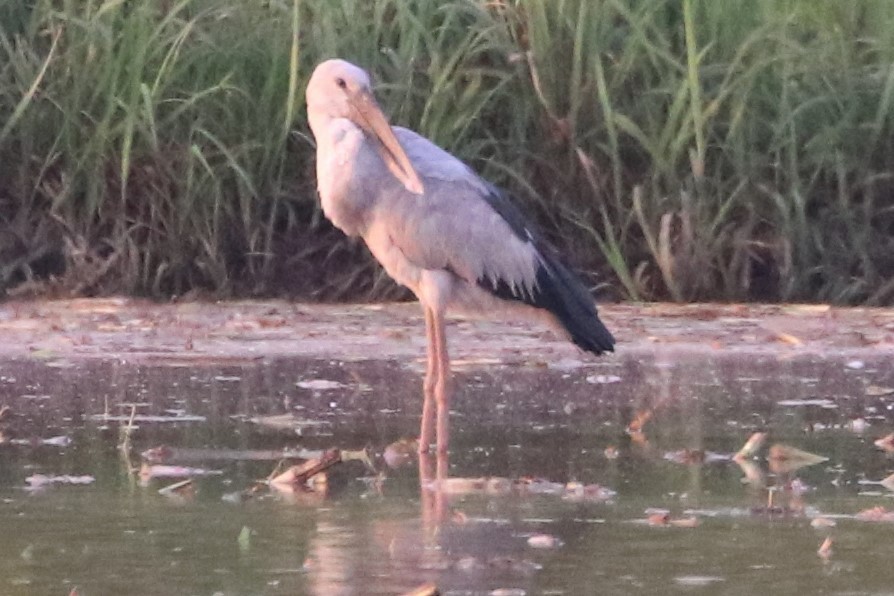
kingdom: Animalia
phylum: Chordata
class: Aves
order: Ciconiiformes
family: Ciconiidae
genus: Anastomus
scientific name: Anastomus oscitans
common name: Asian openbill
